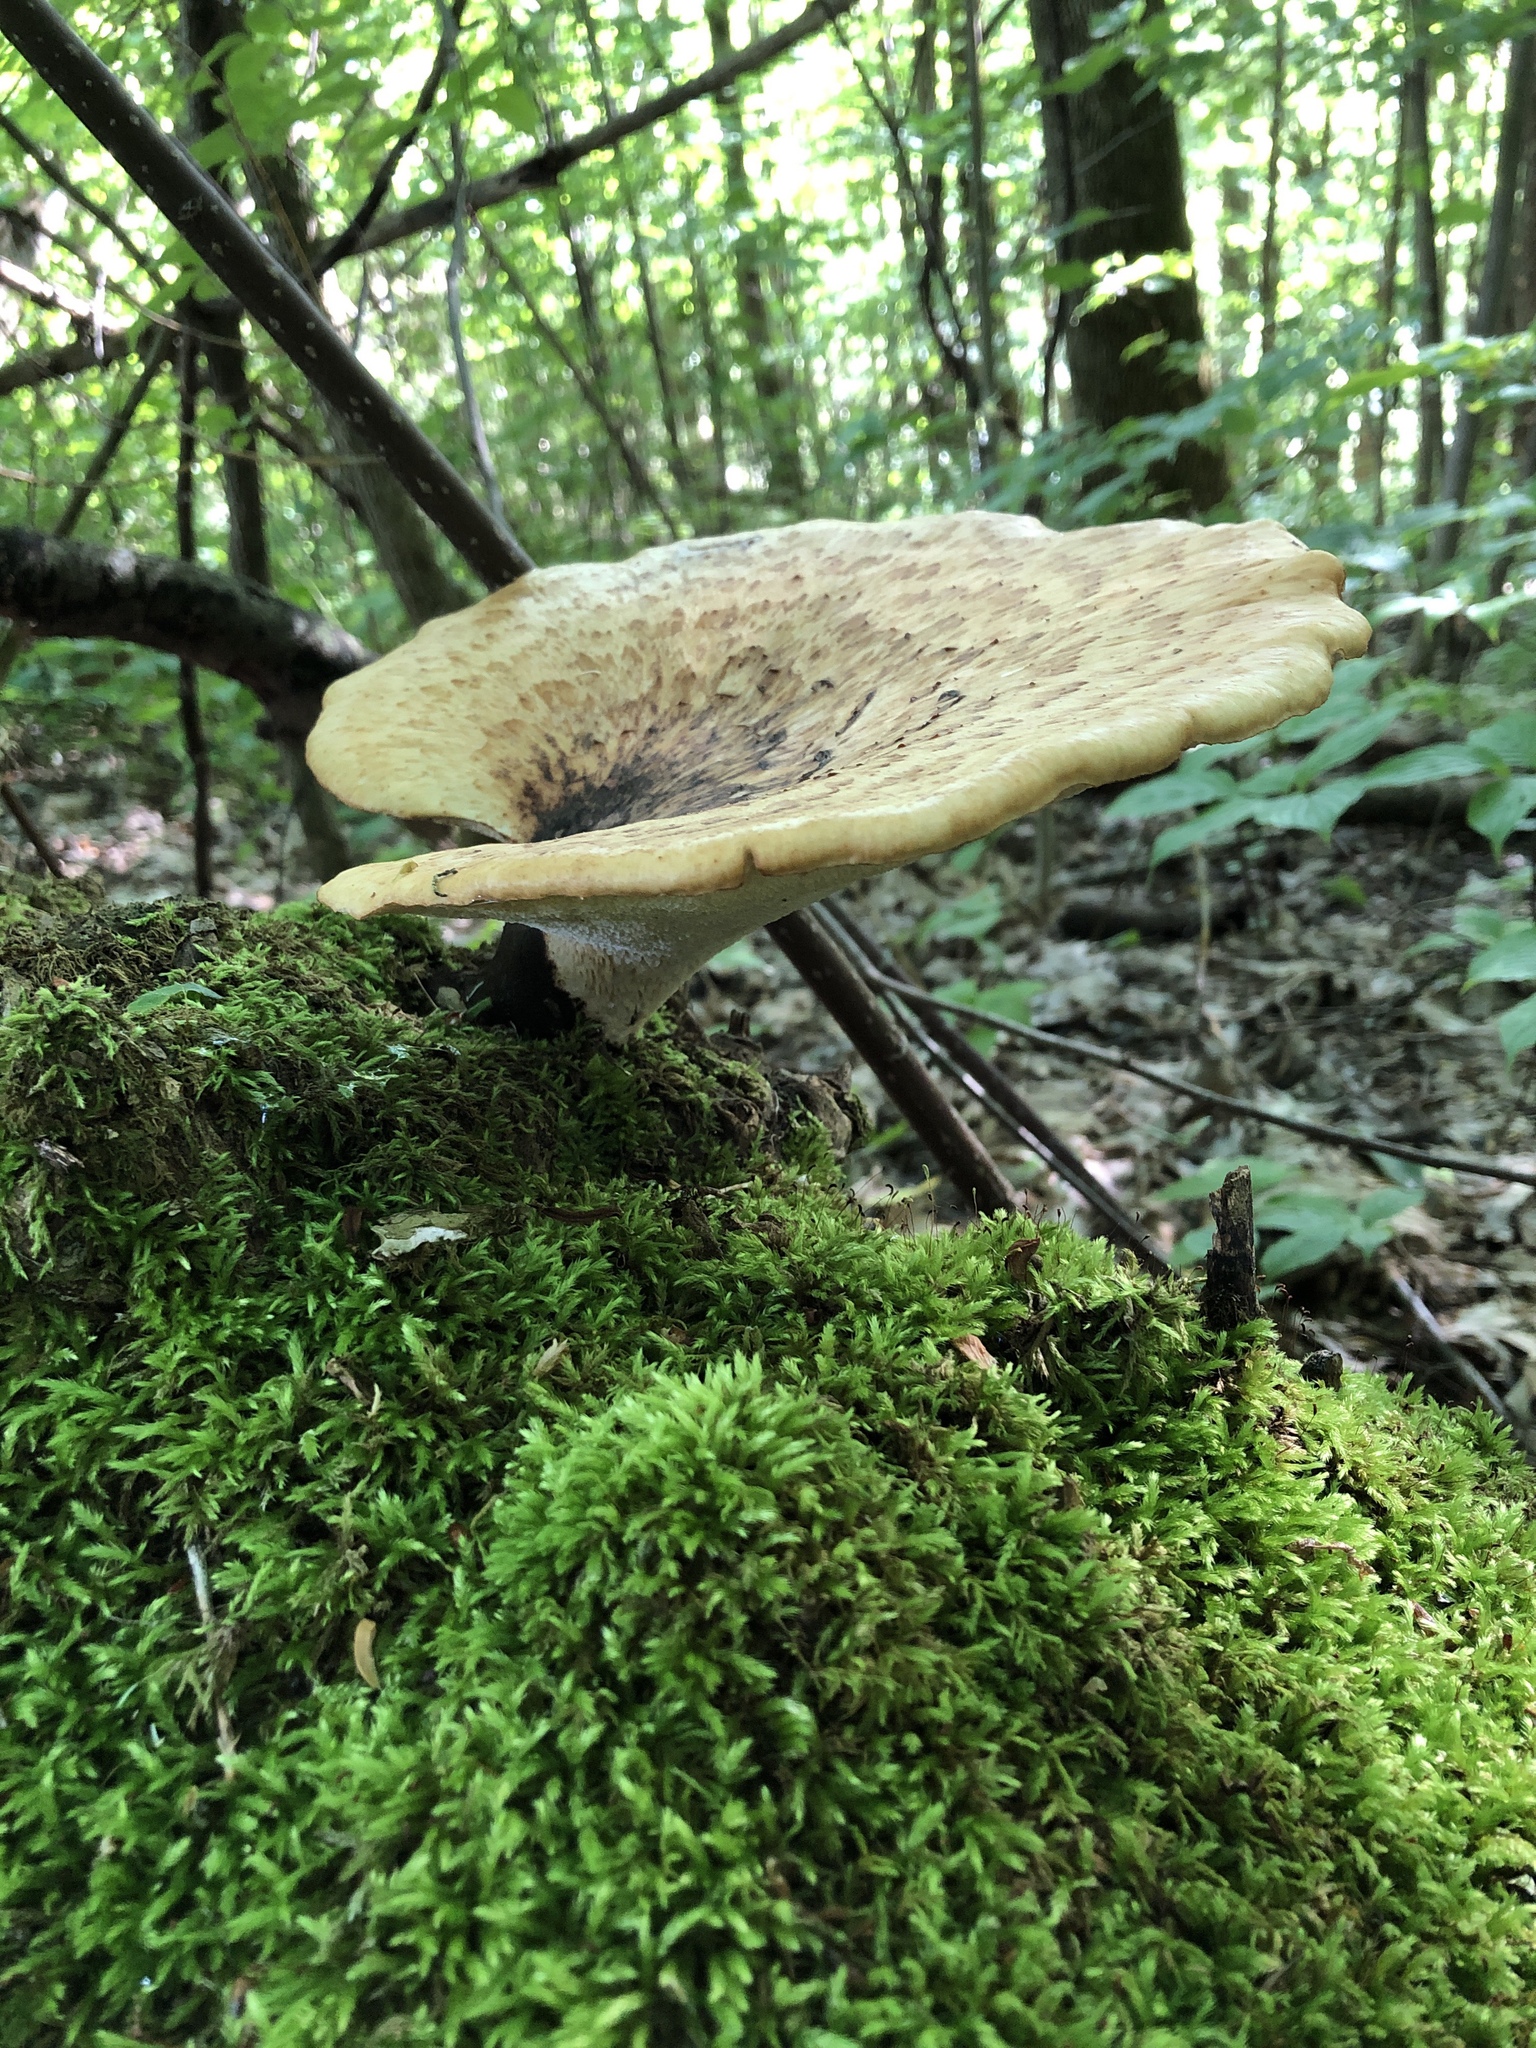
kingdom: Fungi
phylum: Basidiomycota
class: Agaricomycetes
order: Polyporales
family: Polyporaceae
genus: Cerioporus
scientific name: Cerioporus squamosus
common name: Dryad's saddle
